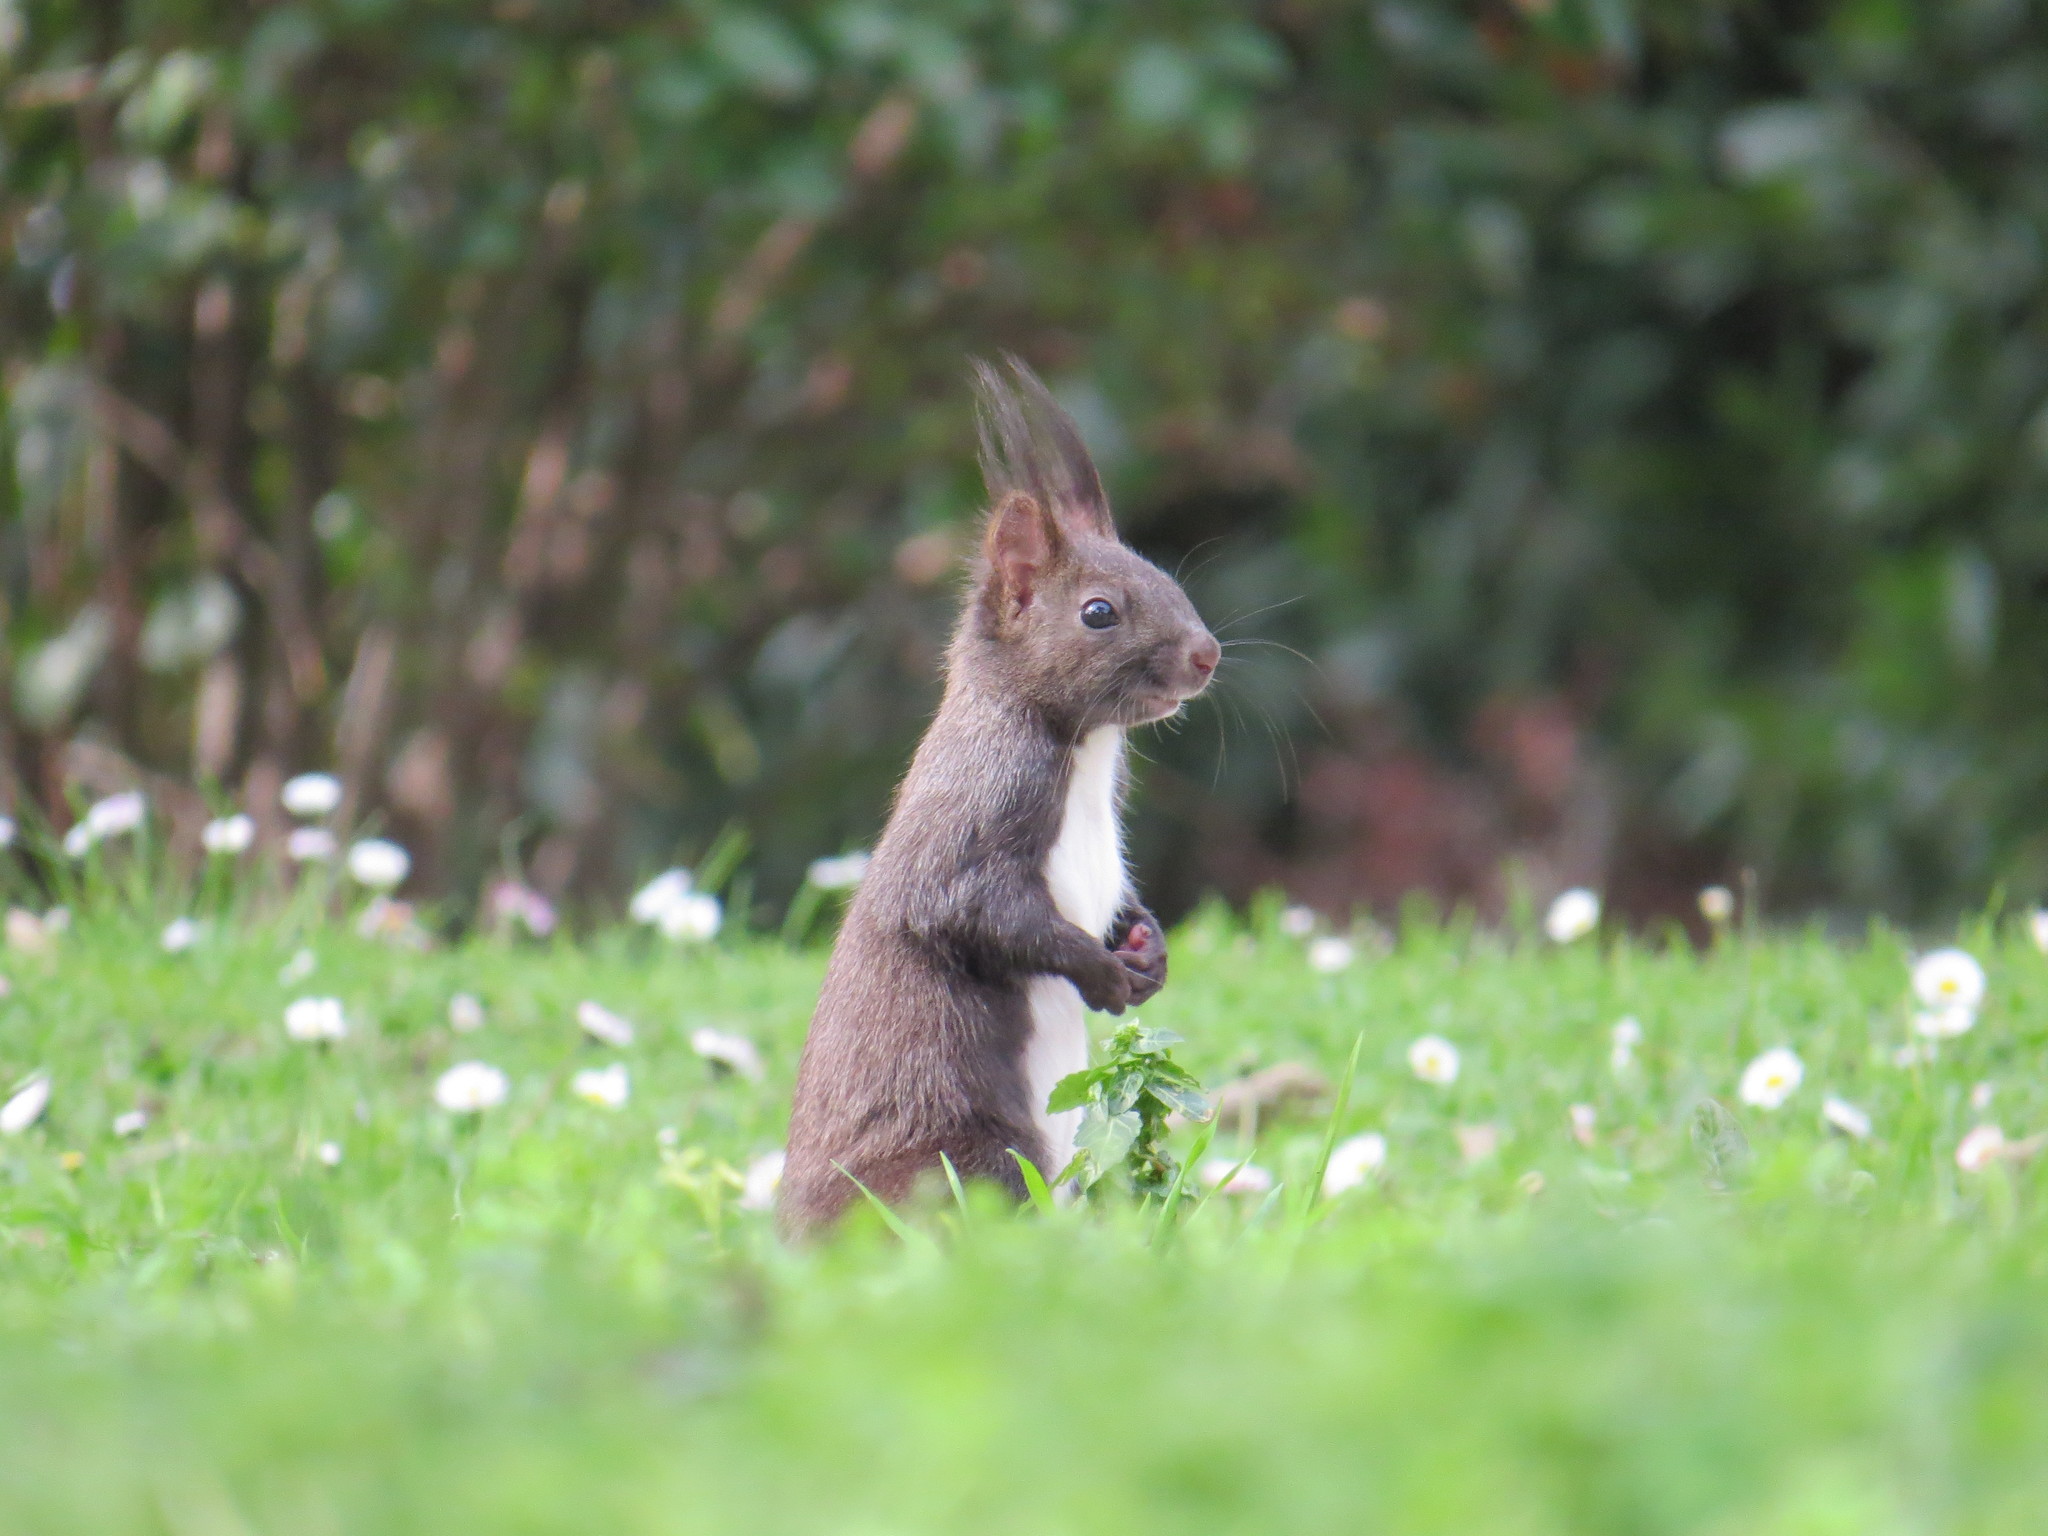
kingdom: Animalia
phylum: Chordata
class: Mammalia
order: Rodentia
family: Sciuridae
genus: Sciurus
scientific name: Sciurus vulgaris
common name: Eurasian red squirrel
